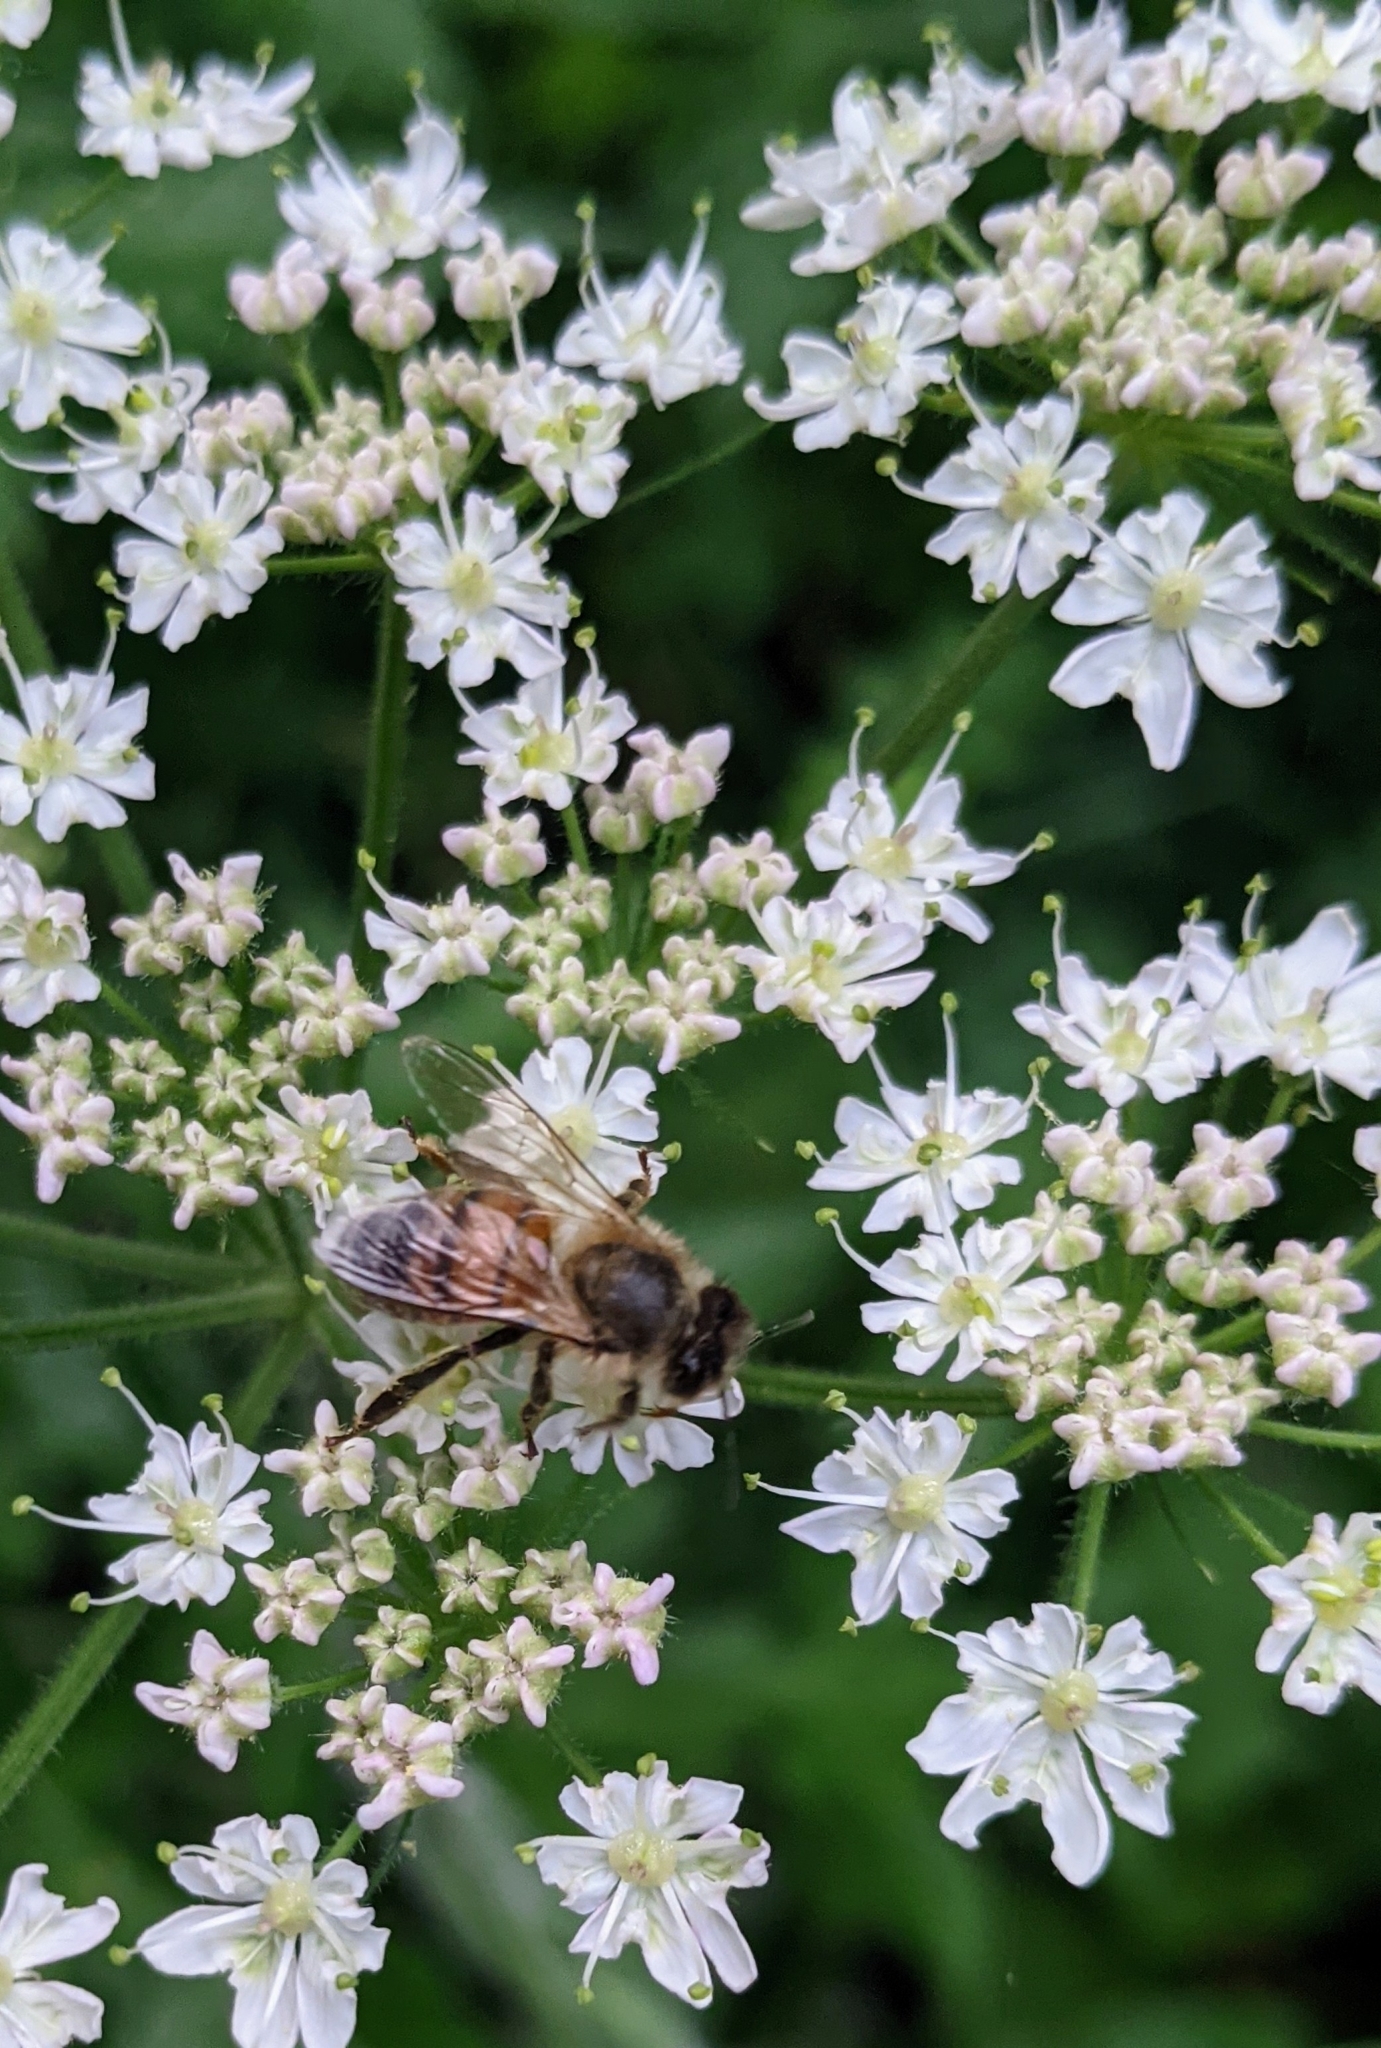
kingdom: Animalia
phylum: Arthropoda
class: Insecta
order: Hymenoptera
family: Apidae
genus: Apis
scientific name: Apis mellifera
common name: Honey bee
